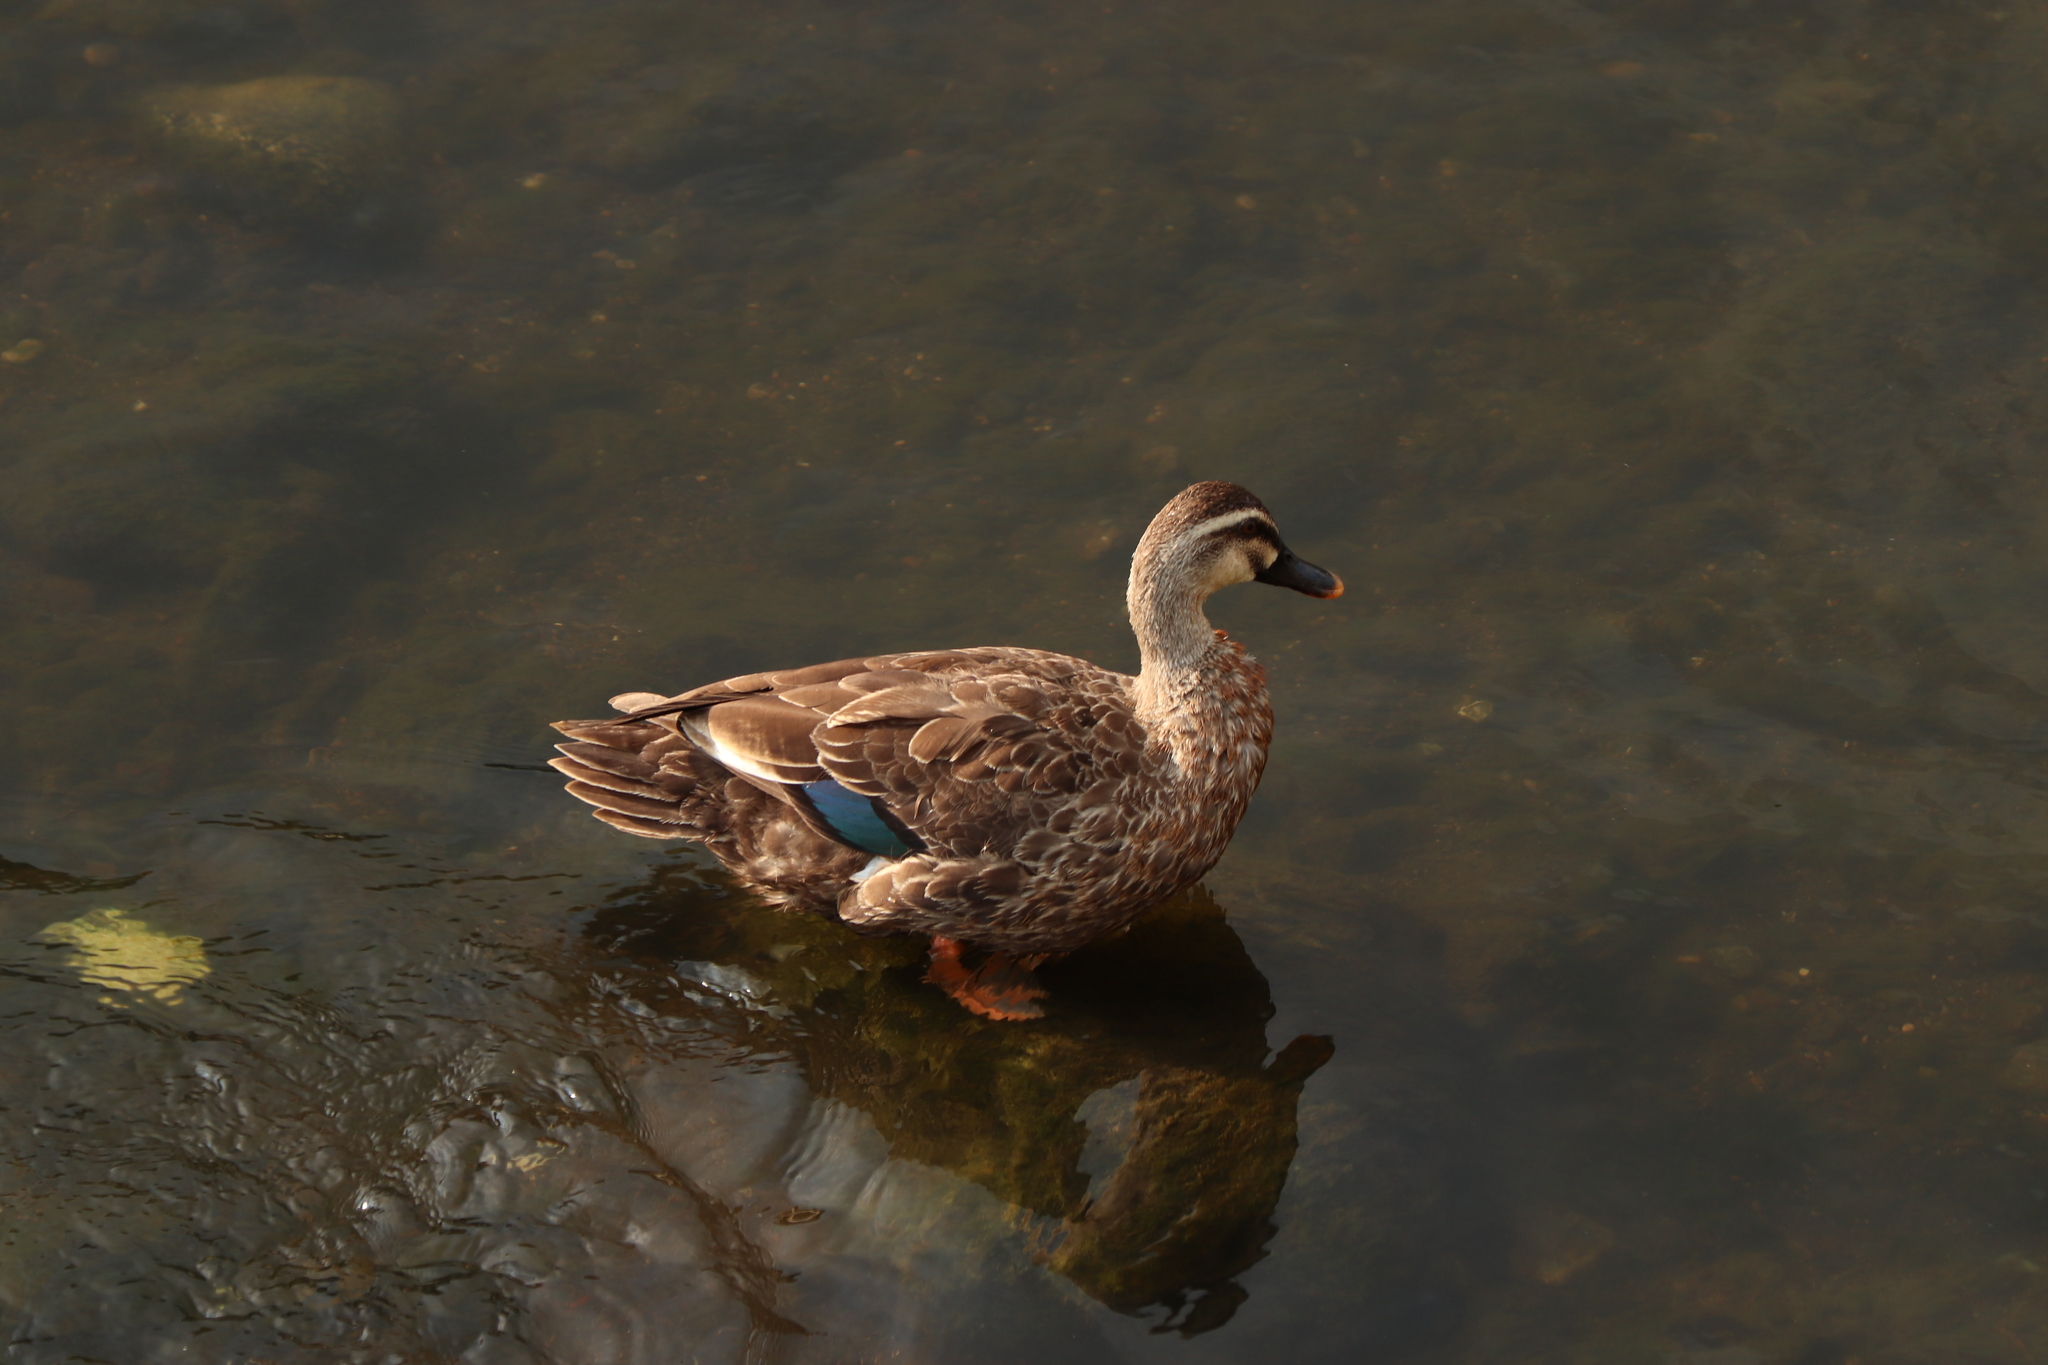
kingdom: Animalia
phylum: Chordata
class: Aves
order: Anseriformes
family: Anatidae
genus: Anas
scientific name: Anas zonorhyncha
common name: Eastern spot-billed duck
